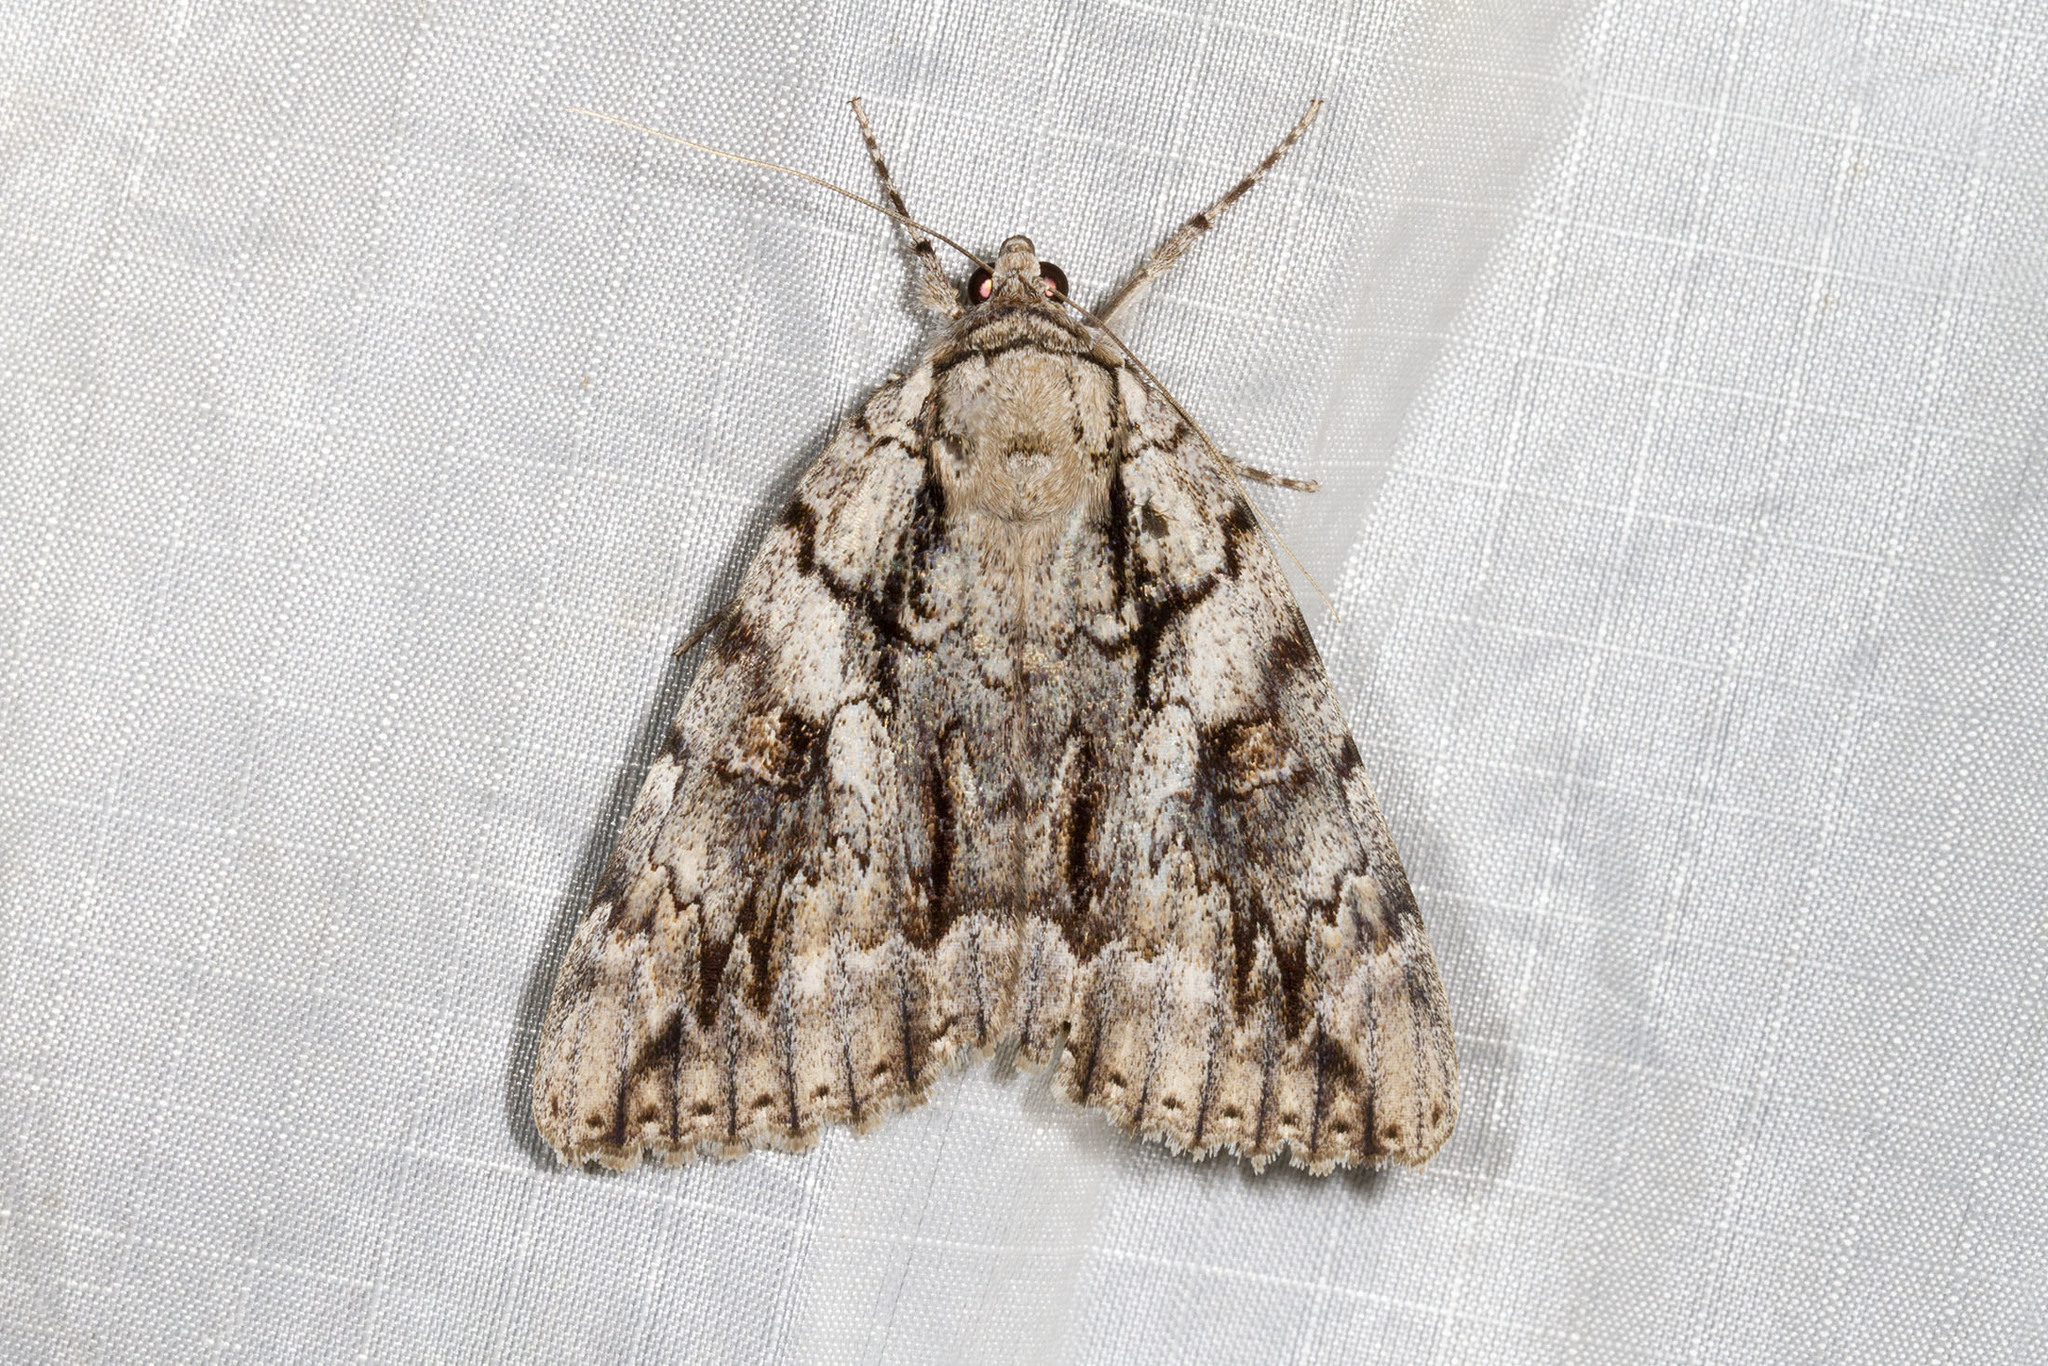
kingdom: Animalia
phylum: Arthropoda
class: Insecta
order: Lepidoptera
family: Erebidae
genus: Catocala
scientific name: Catocala retecta
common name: Yellow-gray underwing
